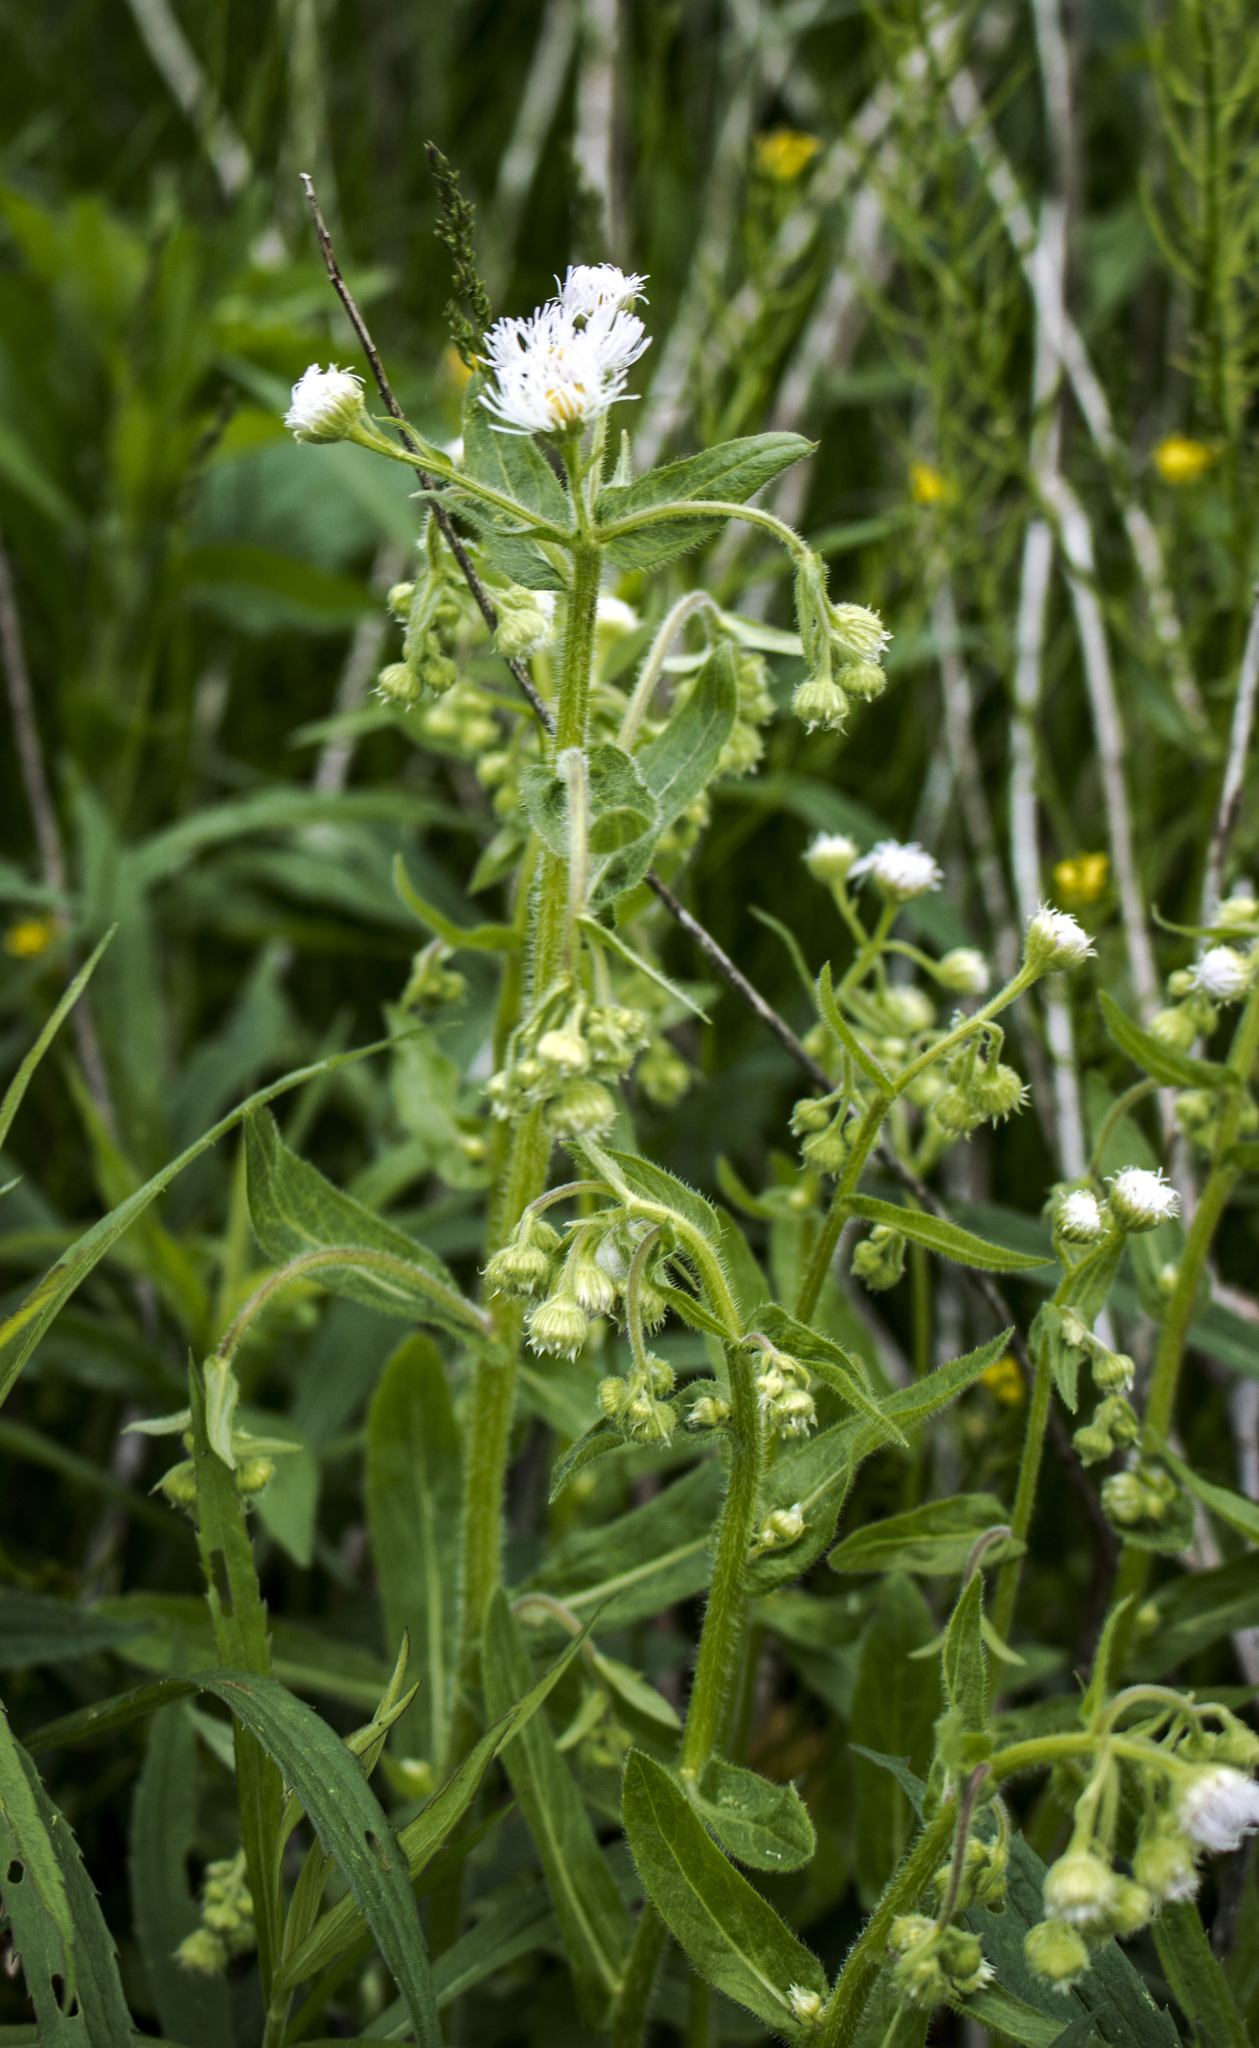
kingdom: Plantae
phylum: Tracheophyta
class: Magnoliopsida
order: Asterales
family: Asteraceae
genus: Erigeron
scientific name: Erigeron philadelphicus
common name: Robin's-plantain
